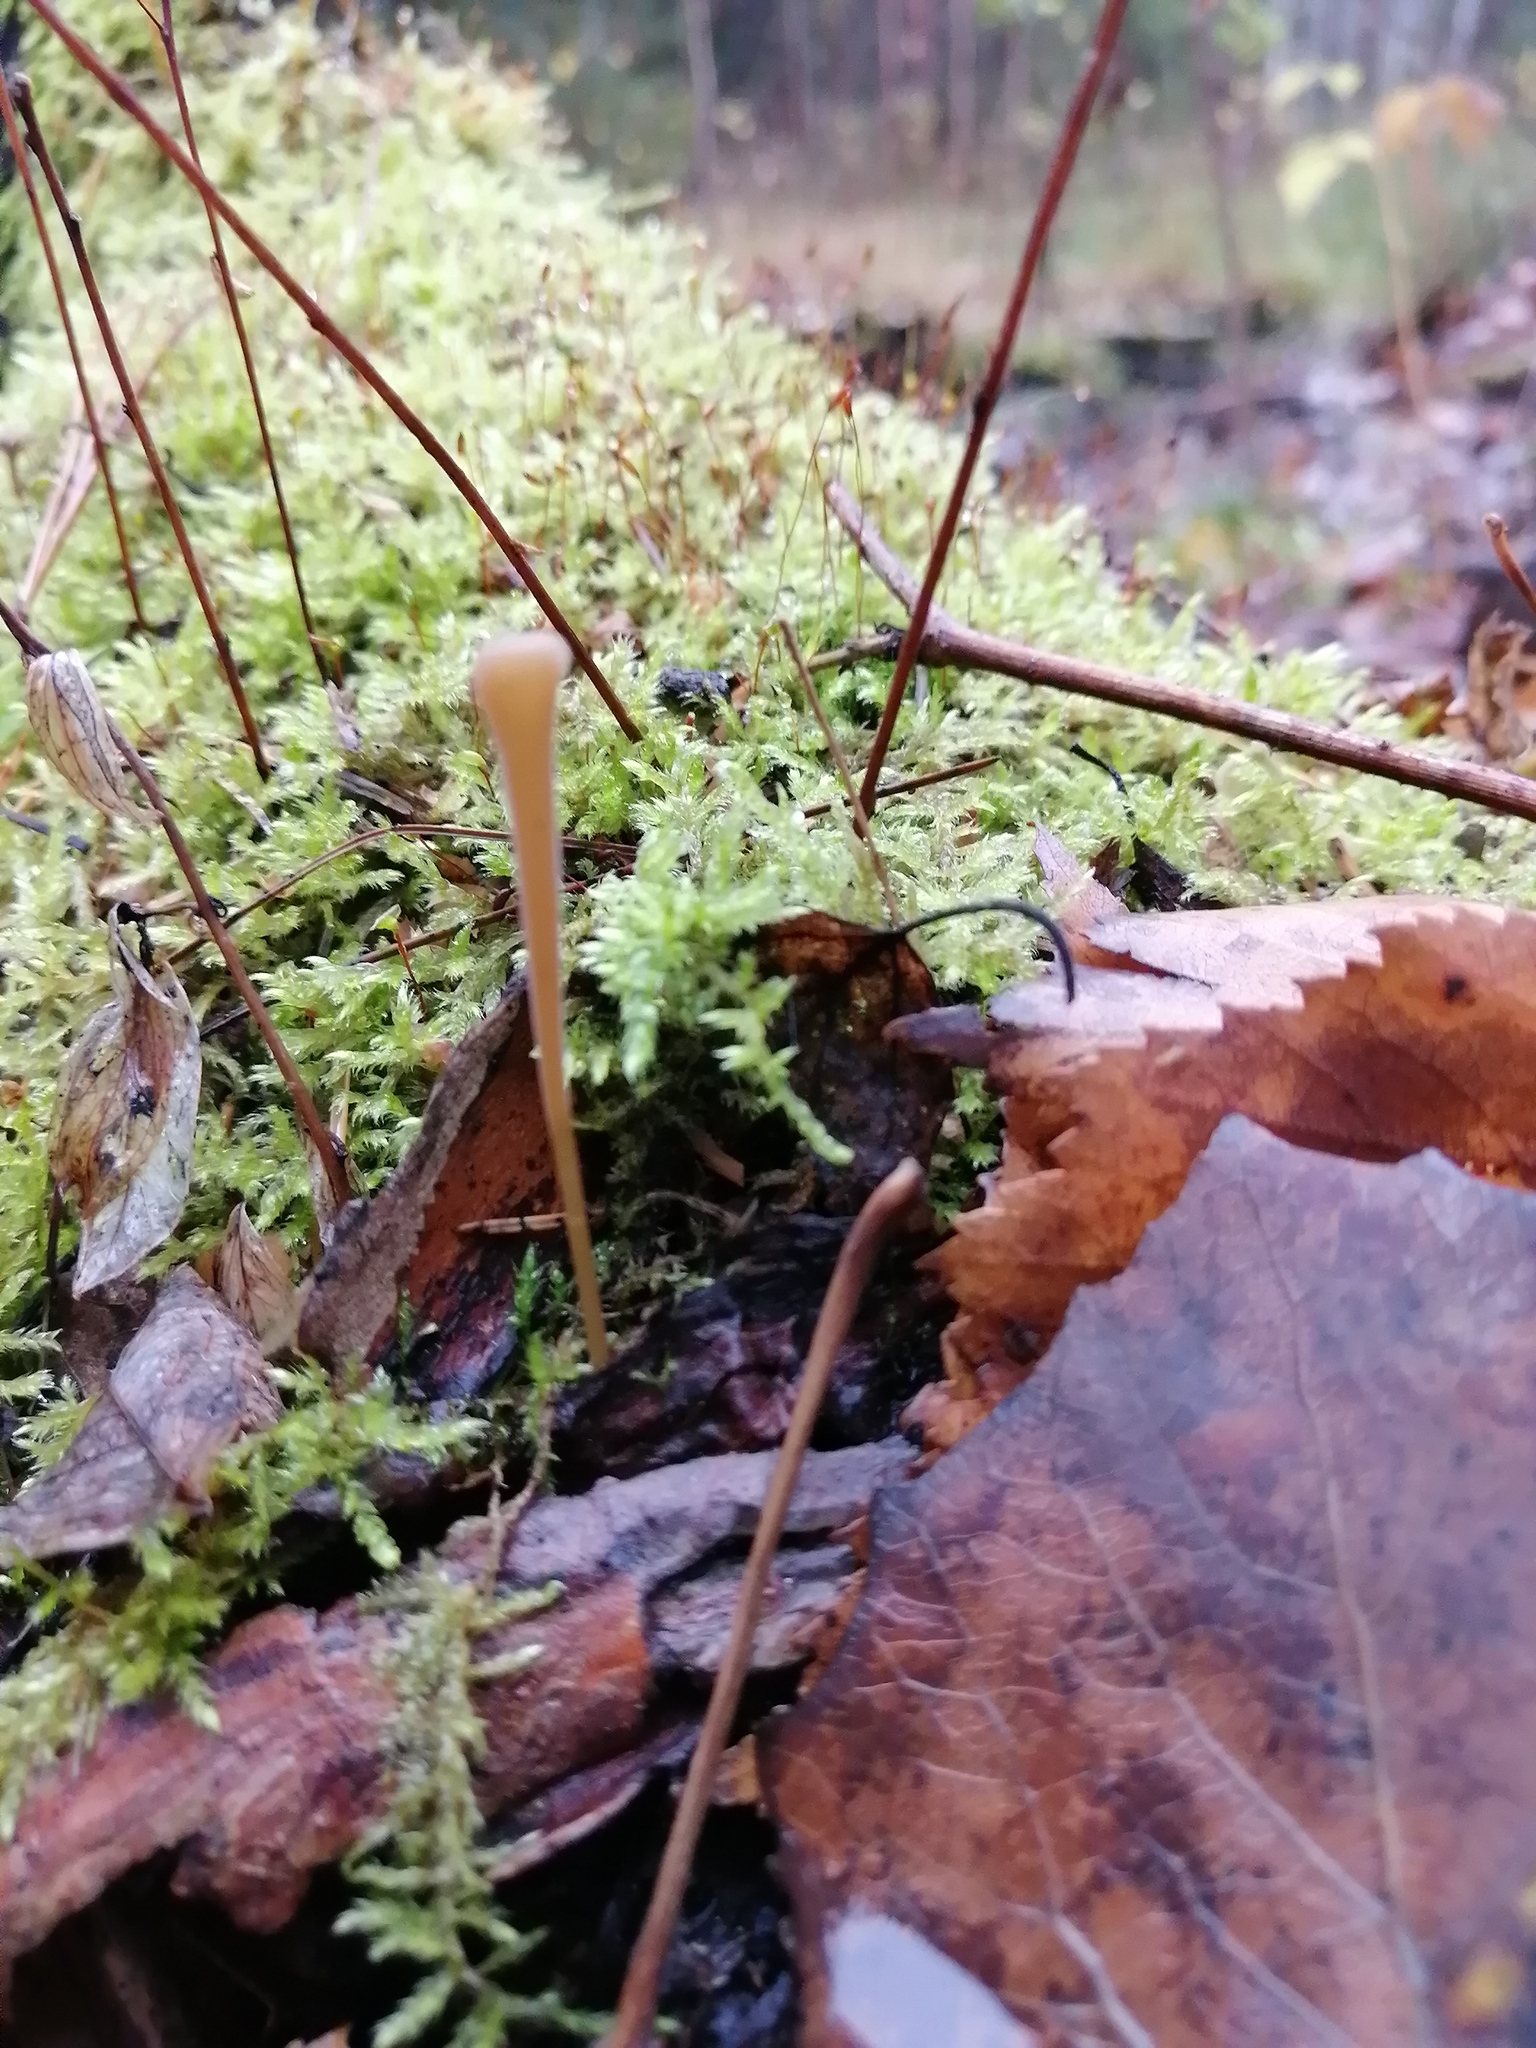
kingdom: Fungi
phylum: Basidiomycota
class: Agaricomycetes
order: Agaricales
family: Typhulaceae
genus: Typhula
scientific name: Typhula fistulosa
